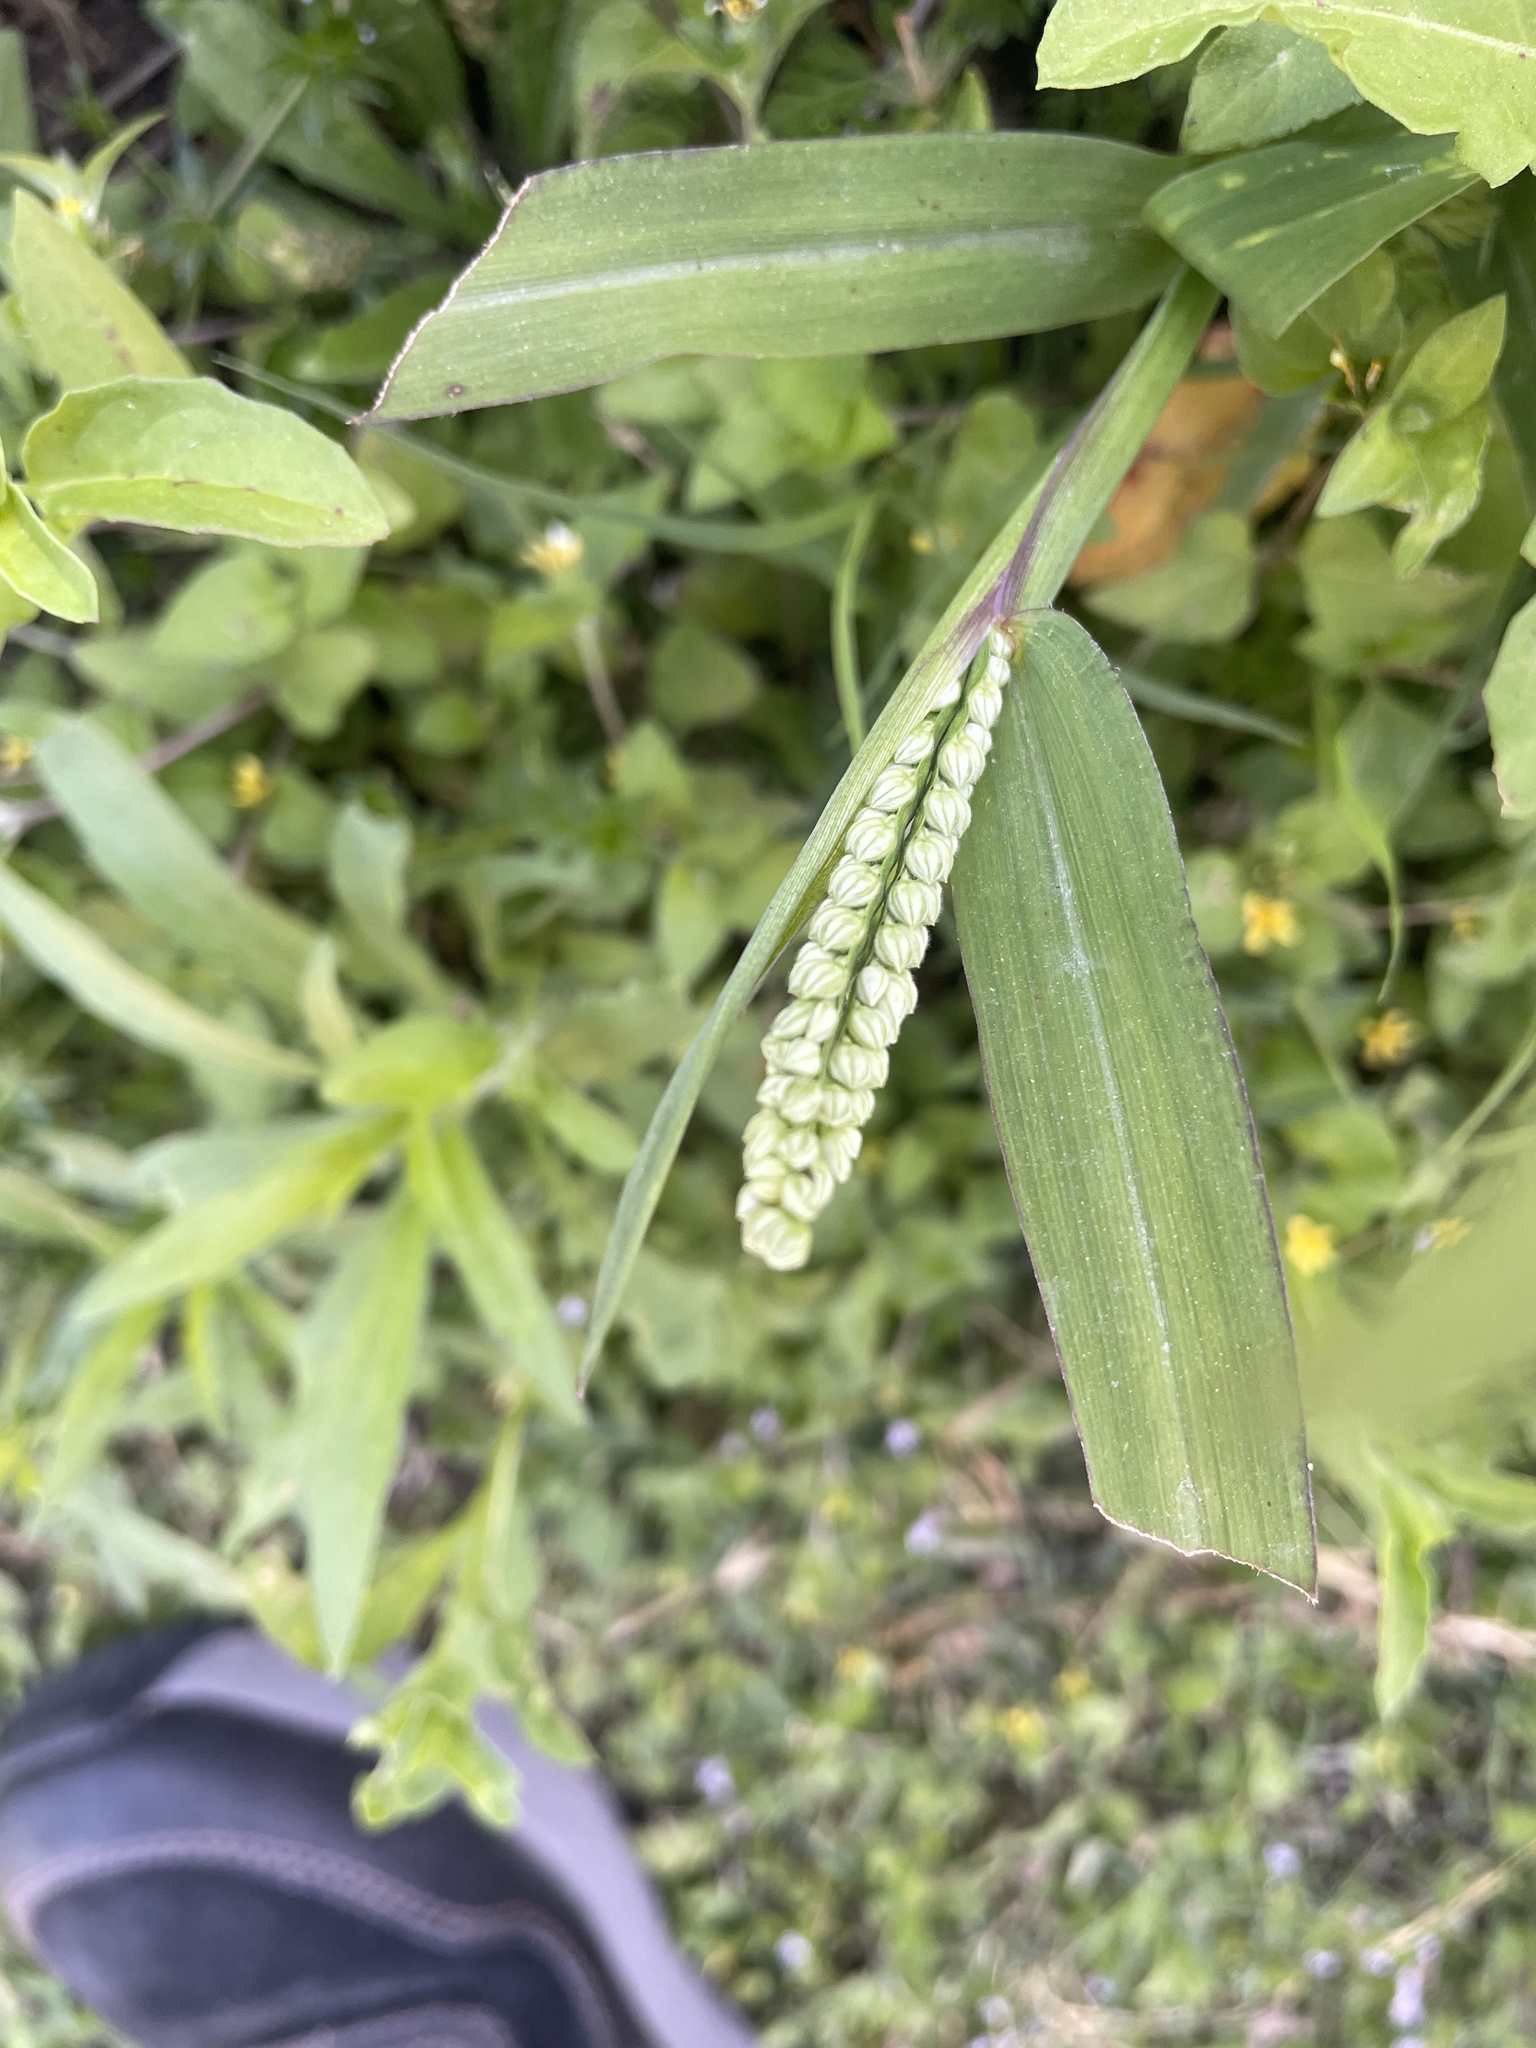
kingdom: Plantae
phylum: Tracheophyta
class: Liliopsida
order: Poales
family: Poaceae
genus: Paspalum
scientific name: Paspalum pubiflorum
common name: Hairy-seed paspalum
